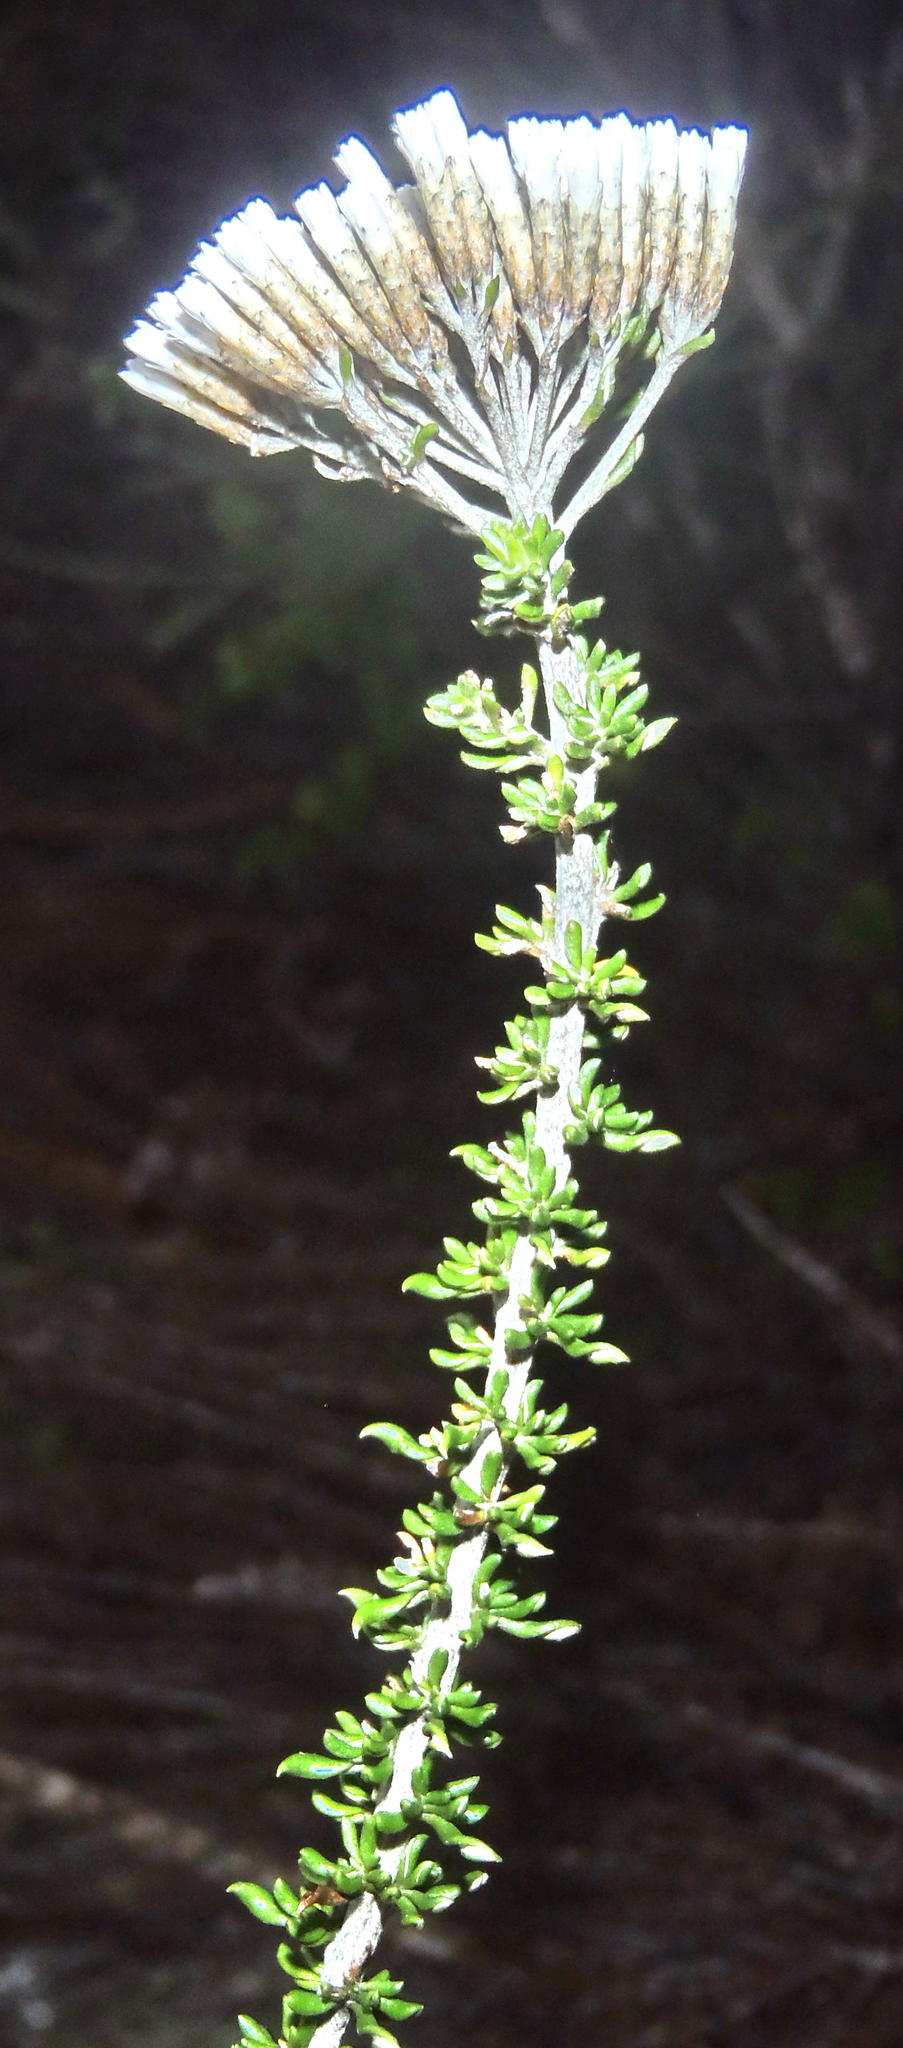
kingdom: Plantae
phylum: Tracheophyta
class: Magnoliopsida
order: Asterales
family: Asteraceae
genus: Metalasia
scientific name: Metalasia muricata
